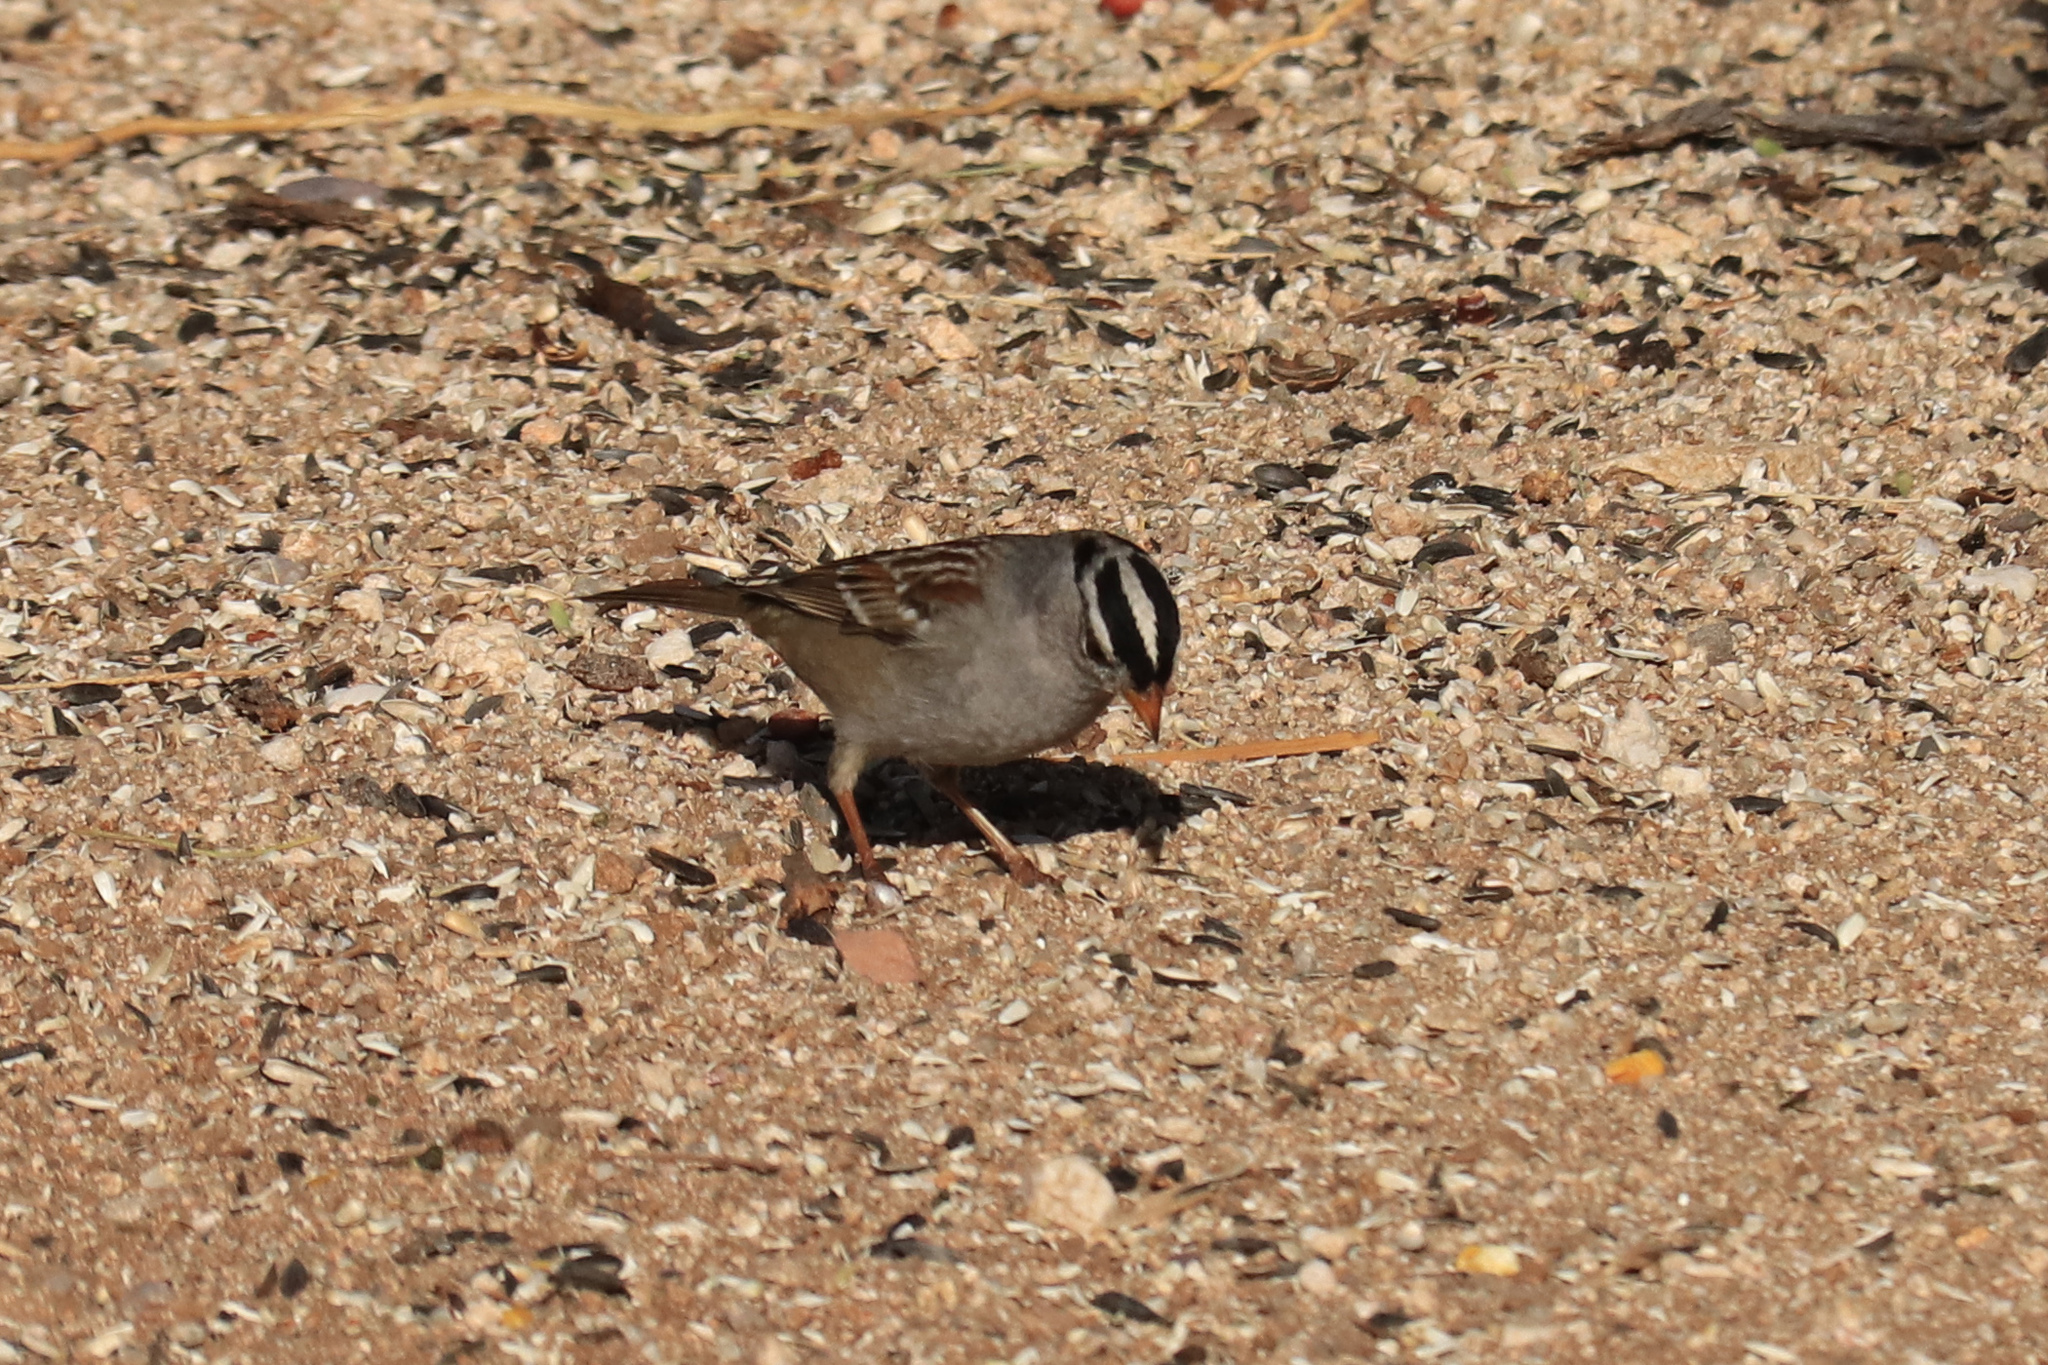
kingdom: Animalia
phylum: Chordata
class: Aves
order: Passeriformes
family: Passerellidae
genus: Zonotrichia
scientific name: Zonotrichia leucophrys
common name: White-crowned sparrow
